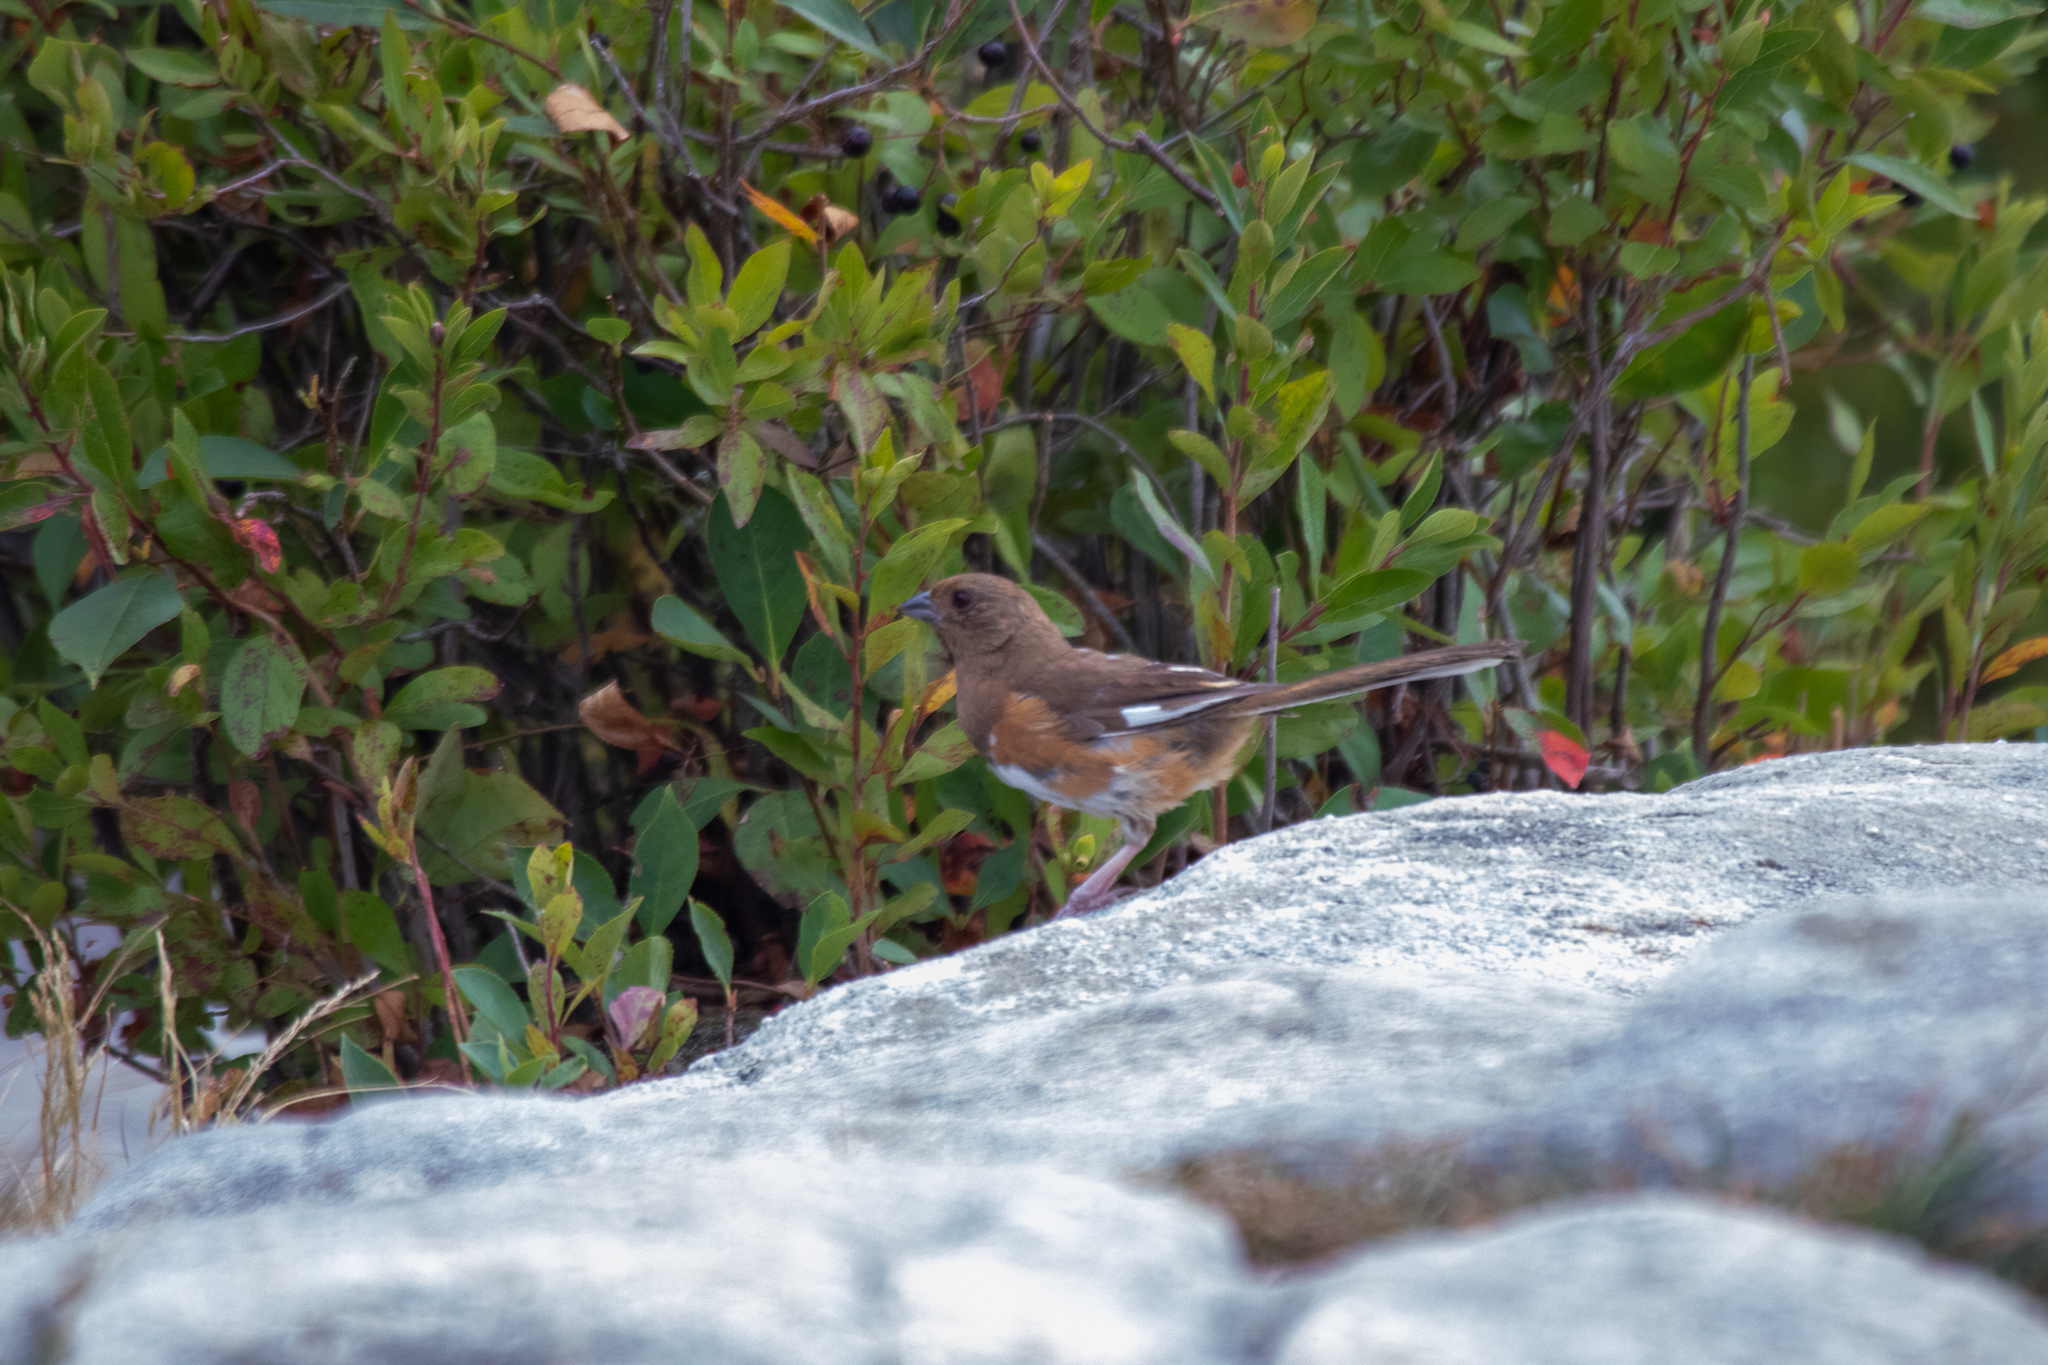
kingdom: Animalia
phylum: Chordata
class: Aves
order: Passeriformes
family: Passerellidae
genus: Pipilo
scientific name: Pipilo erythrophthalmus
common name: Eastern towhee
